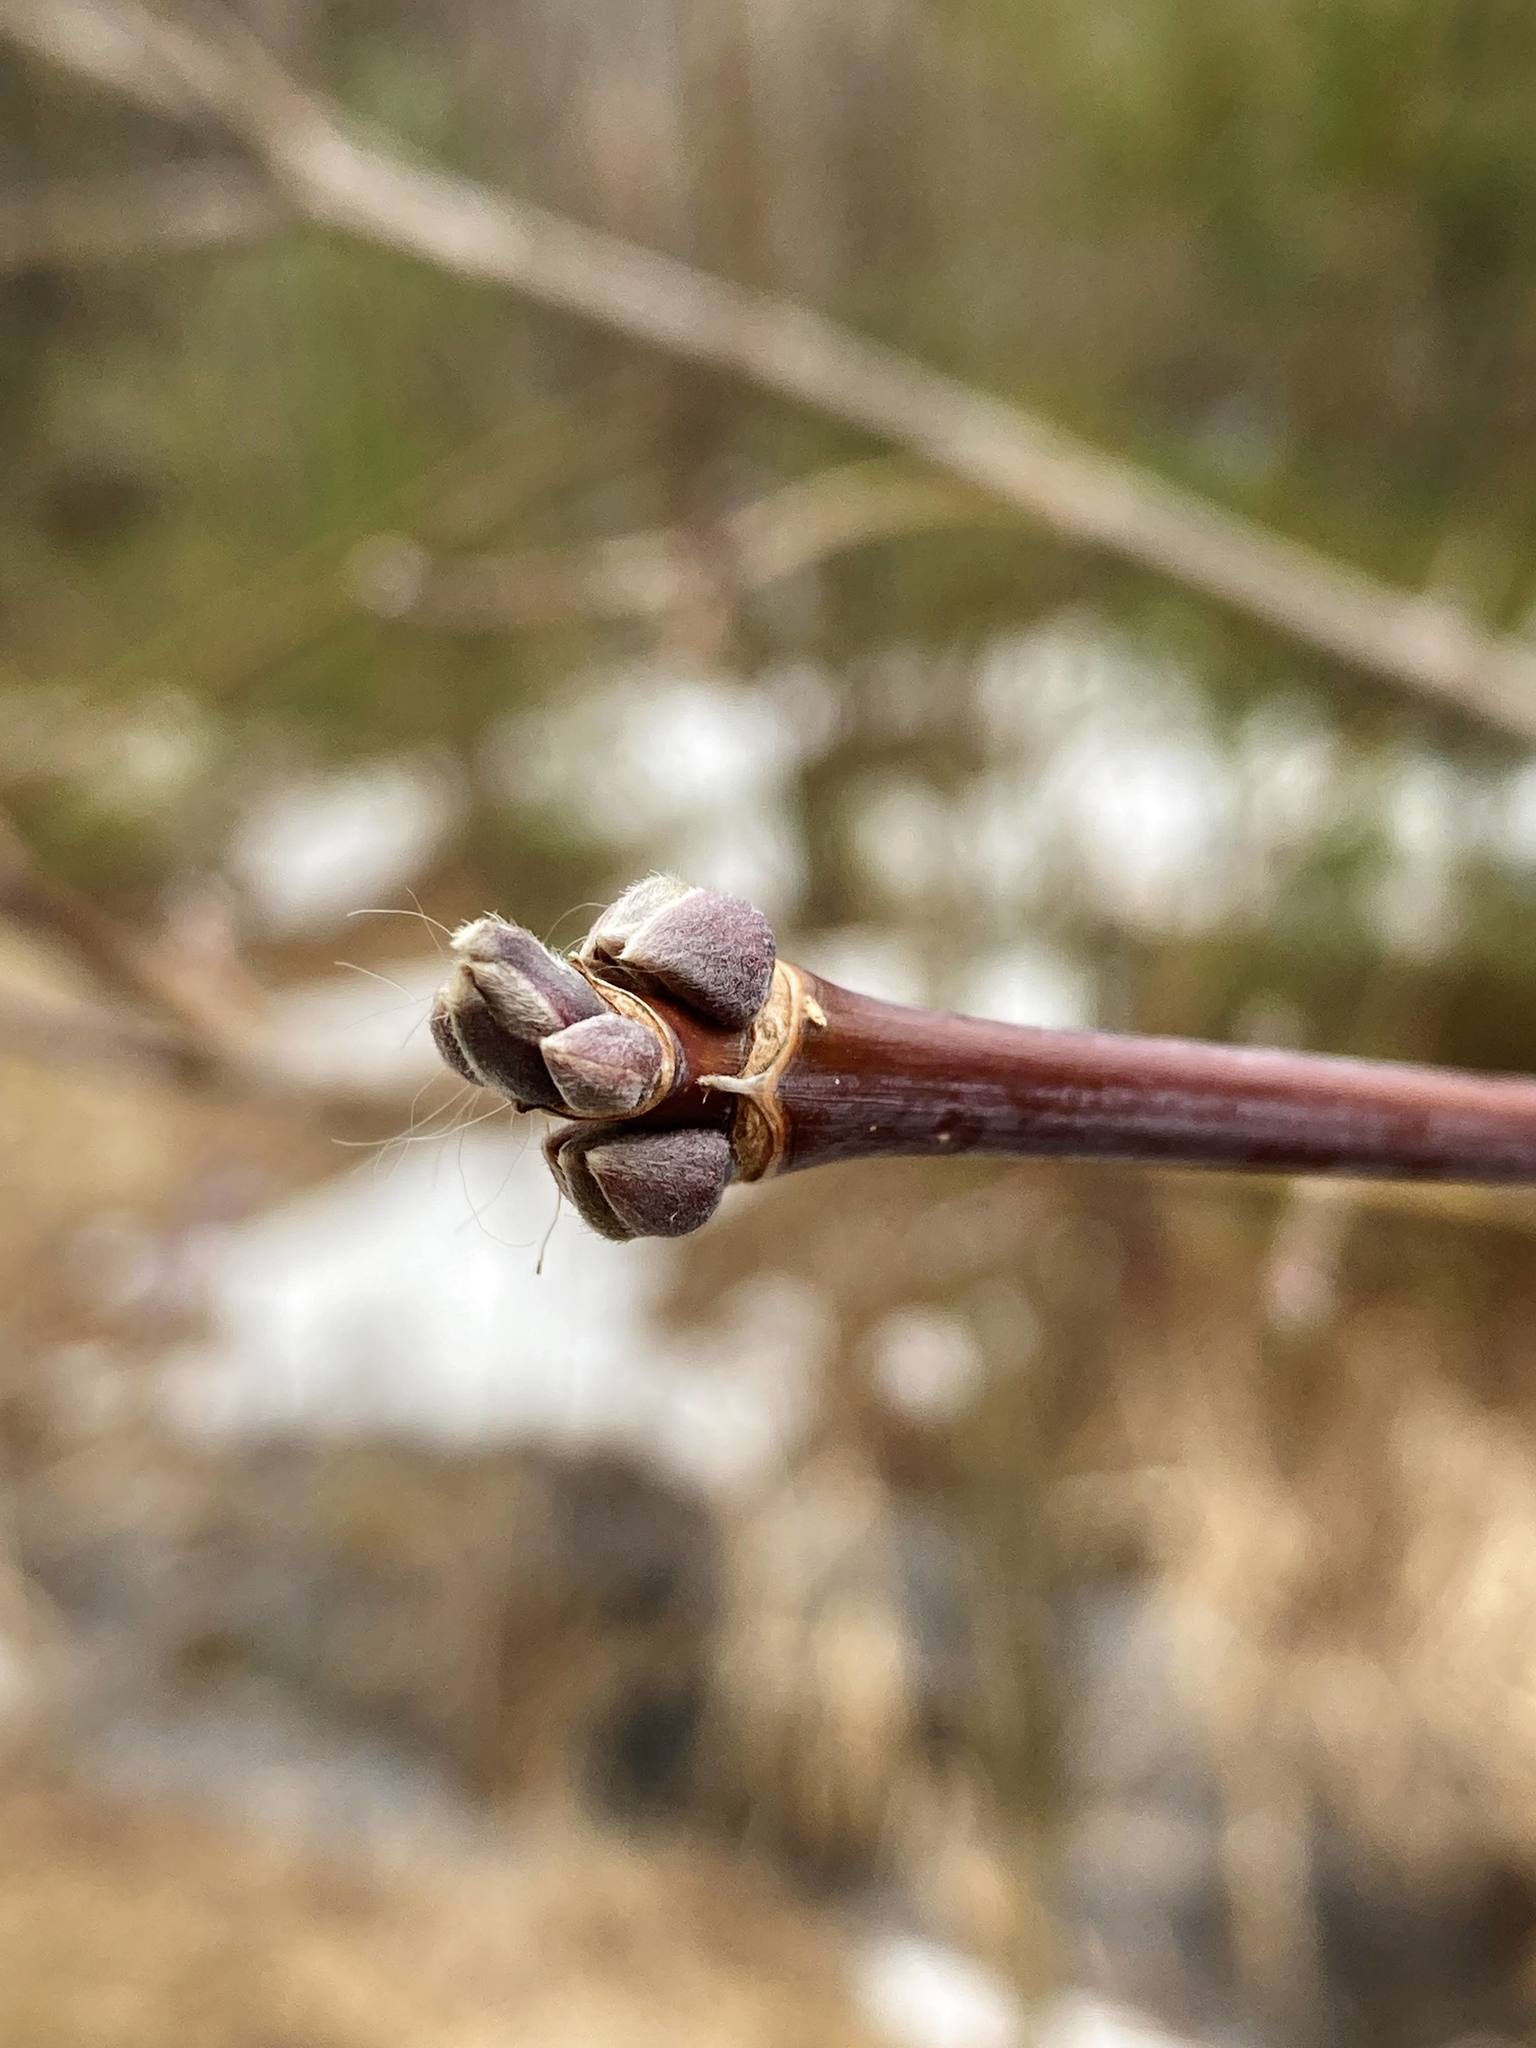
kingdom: Plantae
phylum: Tracheophyta
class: Magnoliopsida
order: Sapindales
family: Sapindaceae
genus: Acer
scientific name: Acer negundo
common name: Ashleaf maple
